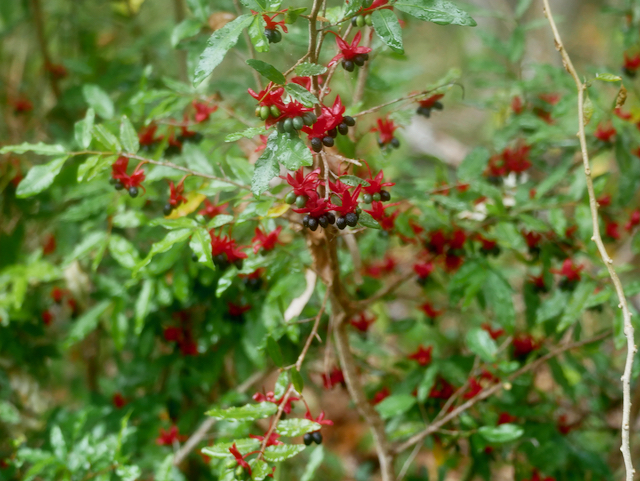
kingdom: Plantae
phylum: Tracheophyta
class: Magnoliopsida
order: Malpighiales
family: Ochnaceae
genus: Ochna
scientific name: Ochna serrulata
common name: Mickey mouse plant
